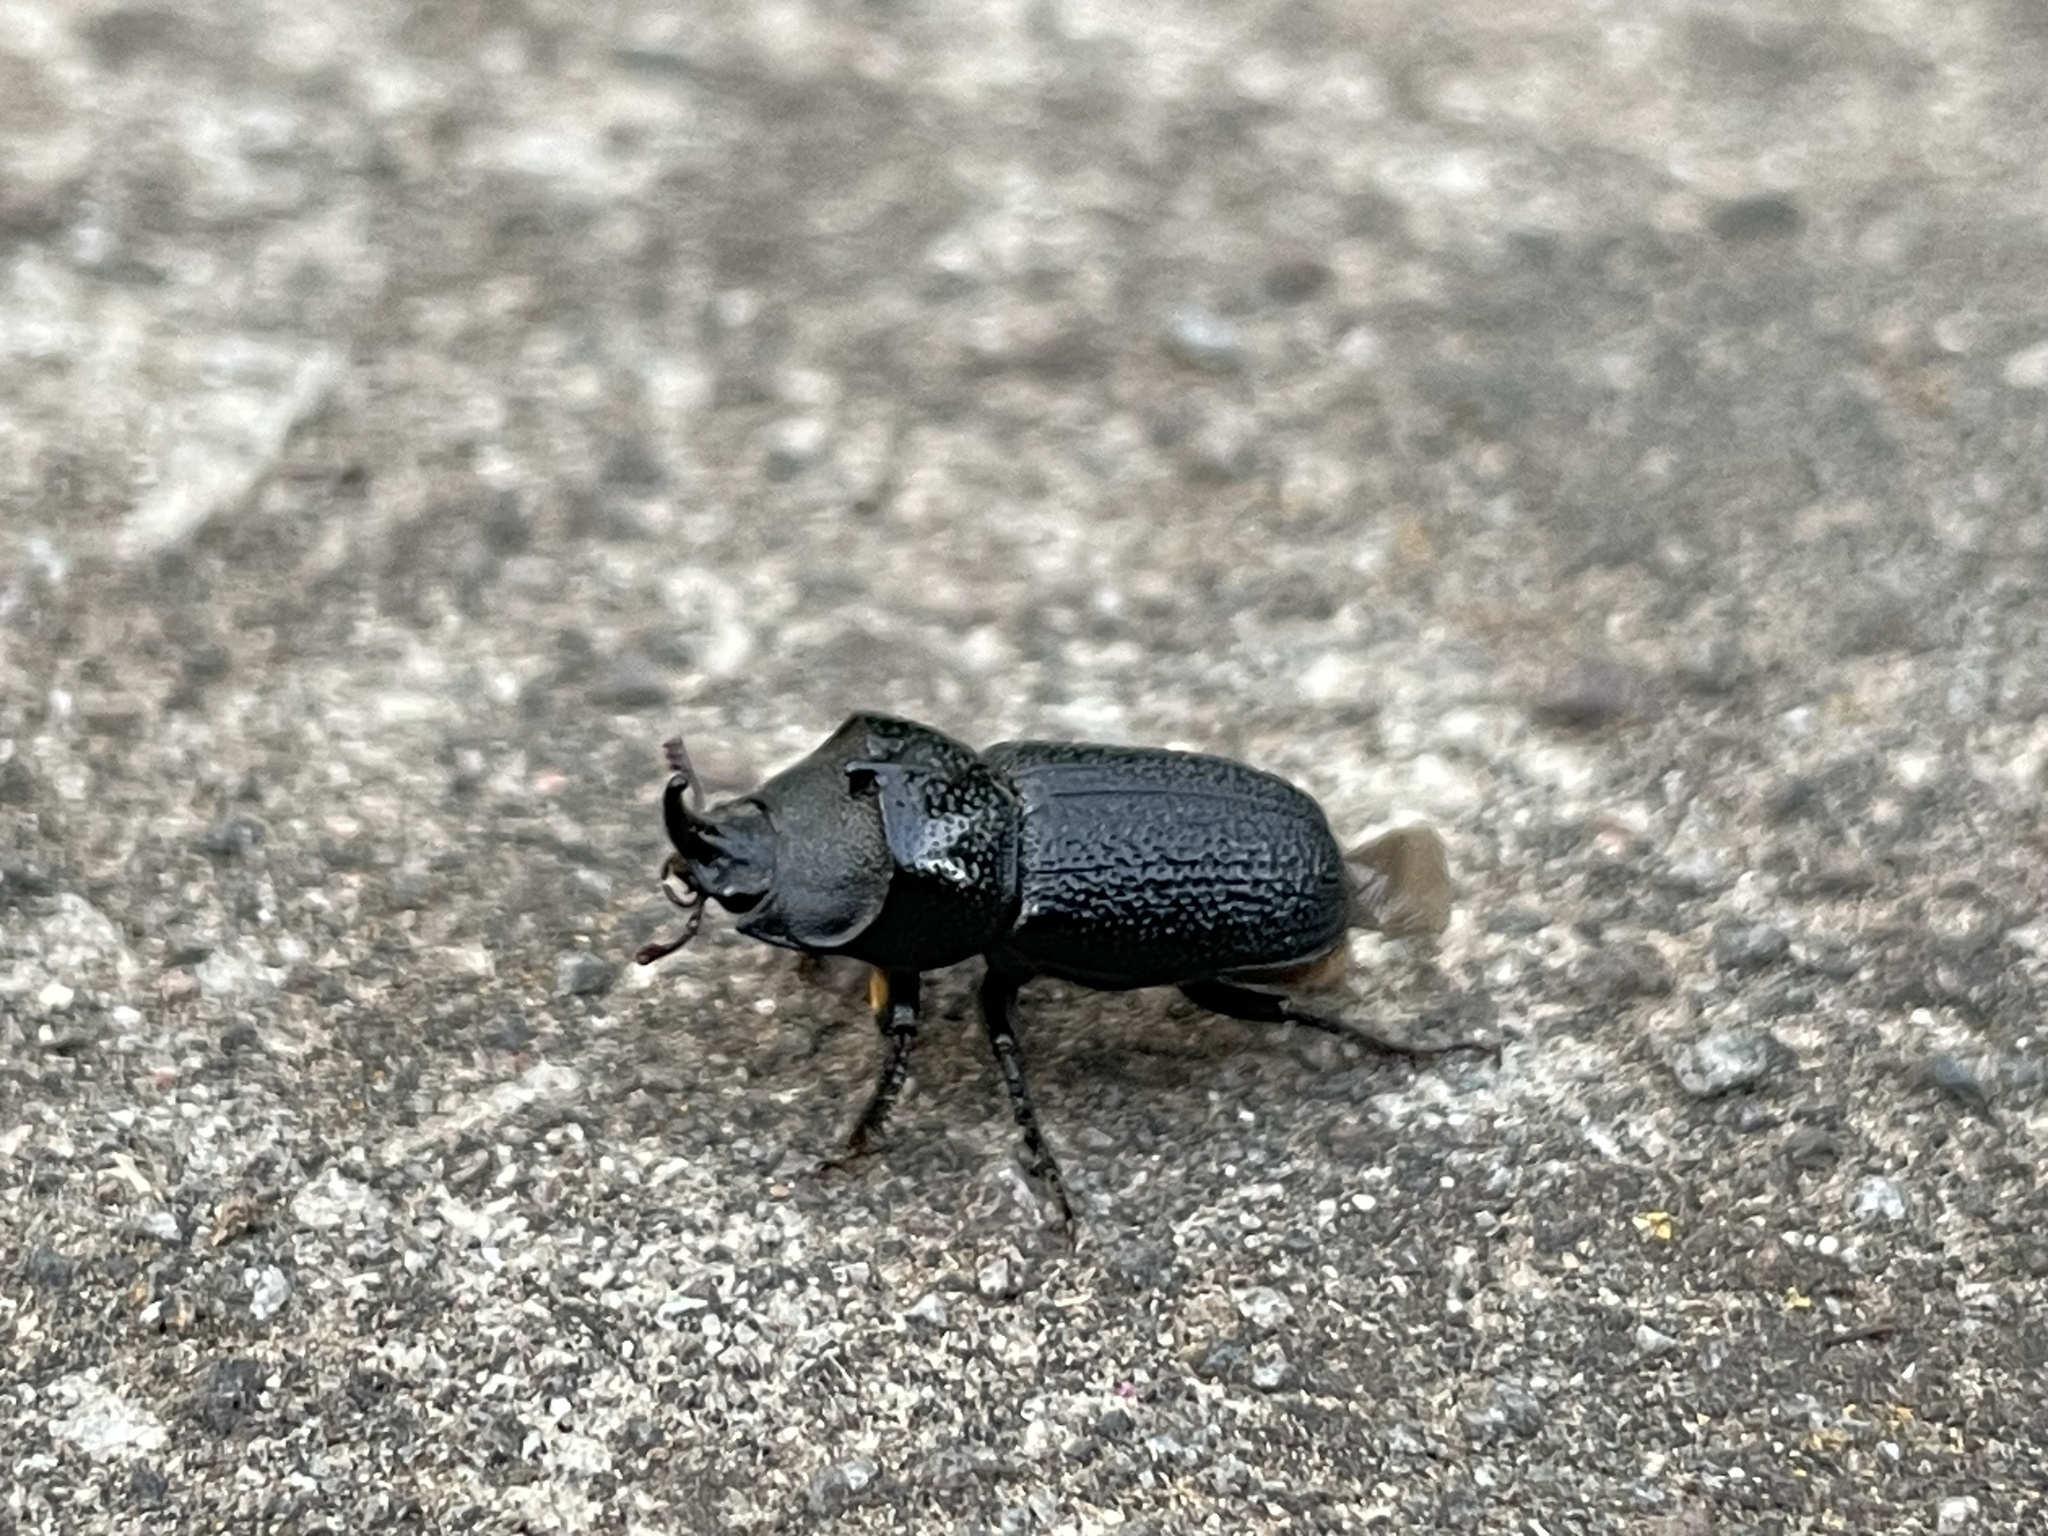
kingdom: Animalia
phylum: Arthropoda
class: Insecta
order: Coleoptera
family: Lucanidae
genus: Sinodendron
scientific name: Sinodendron rugosum
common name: Rugose stag beelte
